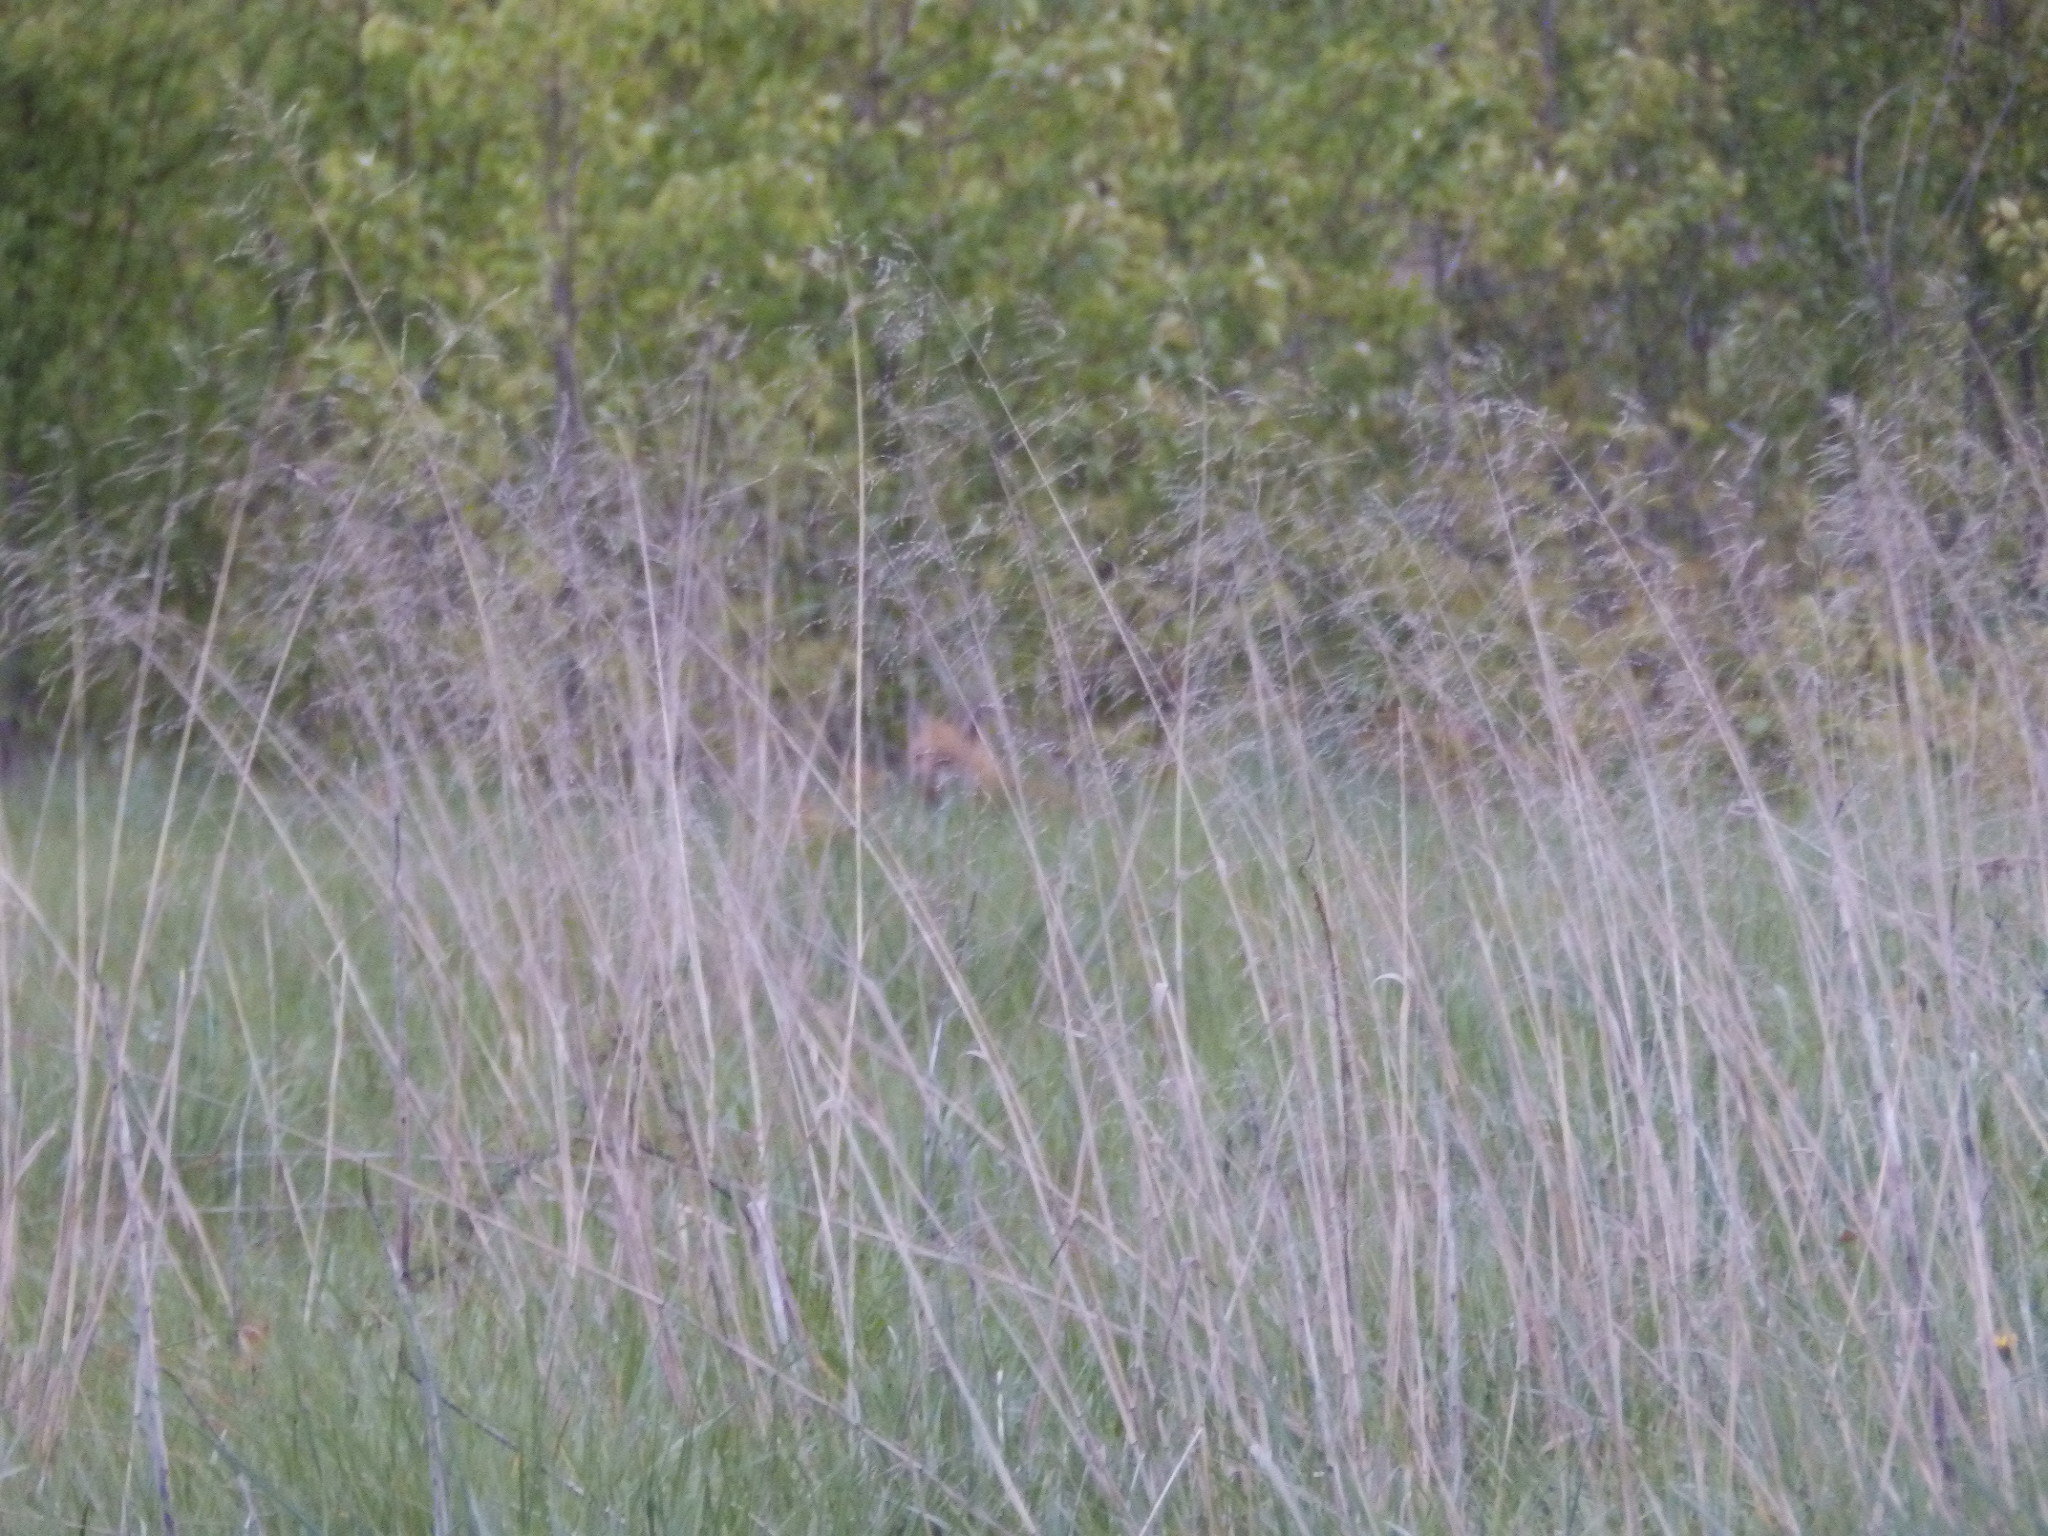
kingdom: Animalia
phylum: Chordata
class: Mammalia
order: Carnivora
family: Canidae
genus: Vulpes
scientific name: Vulpes vulpes
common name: Red fox
